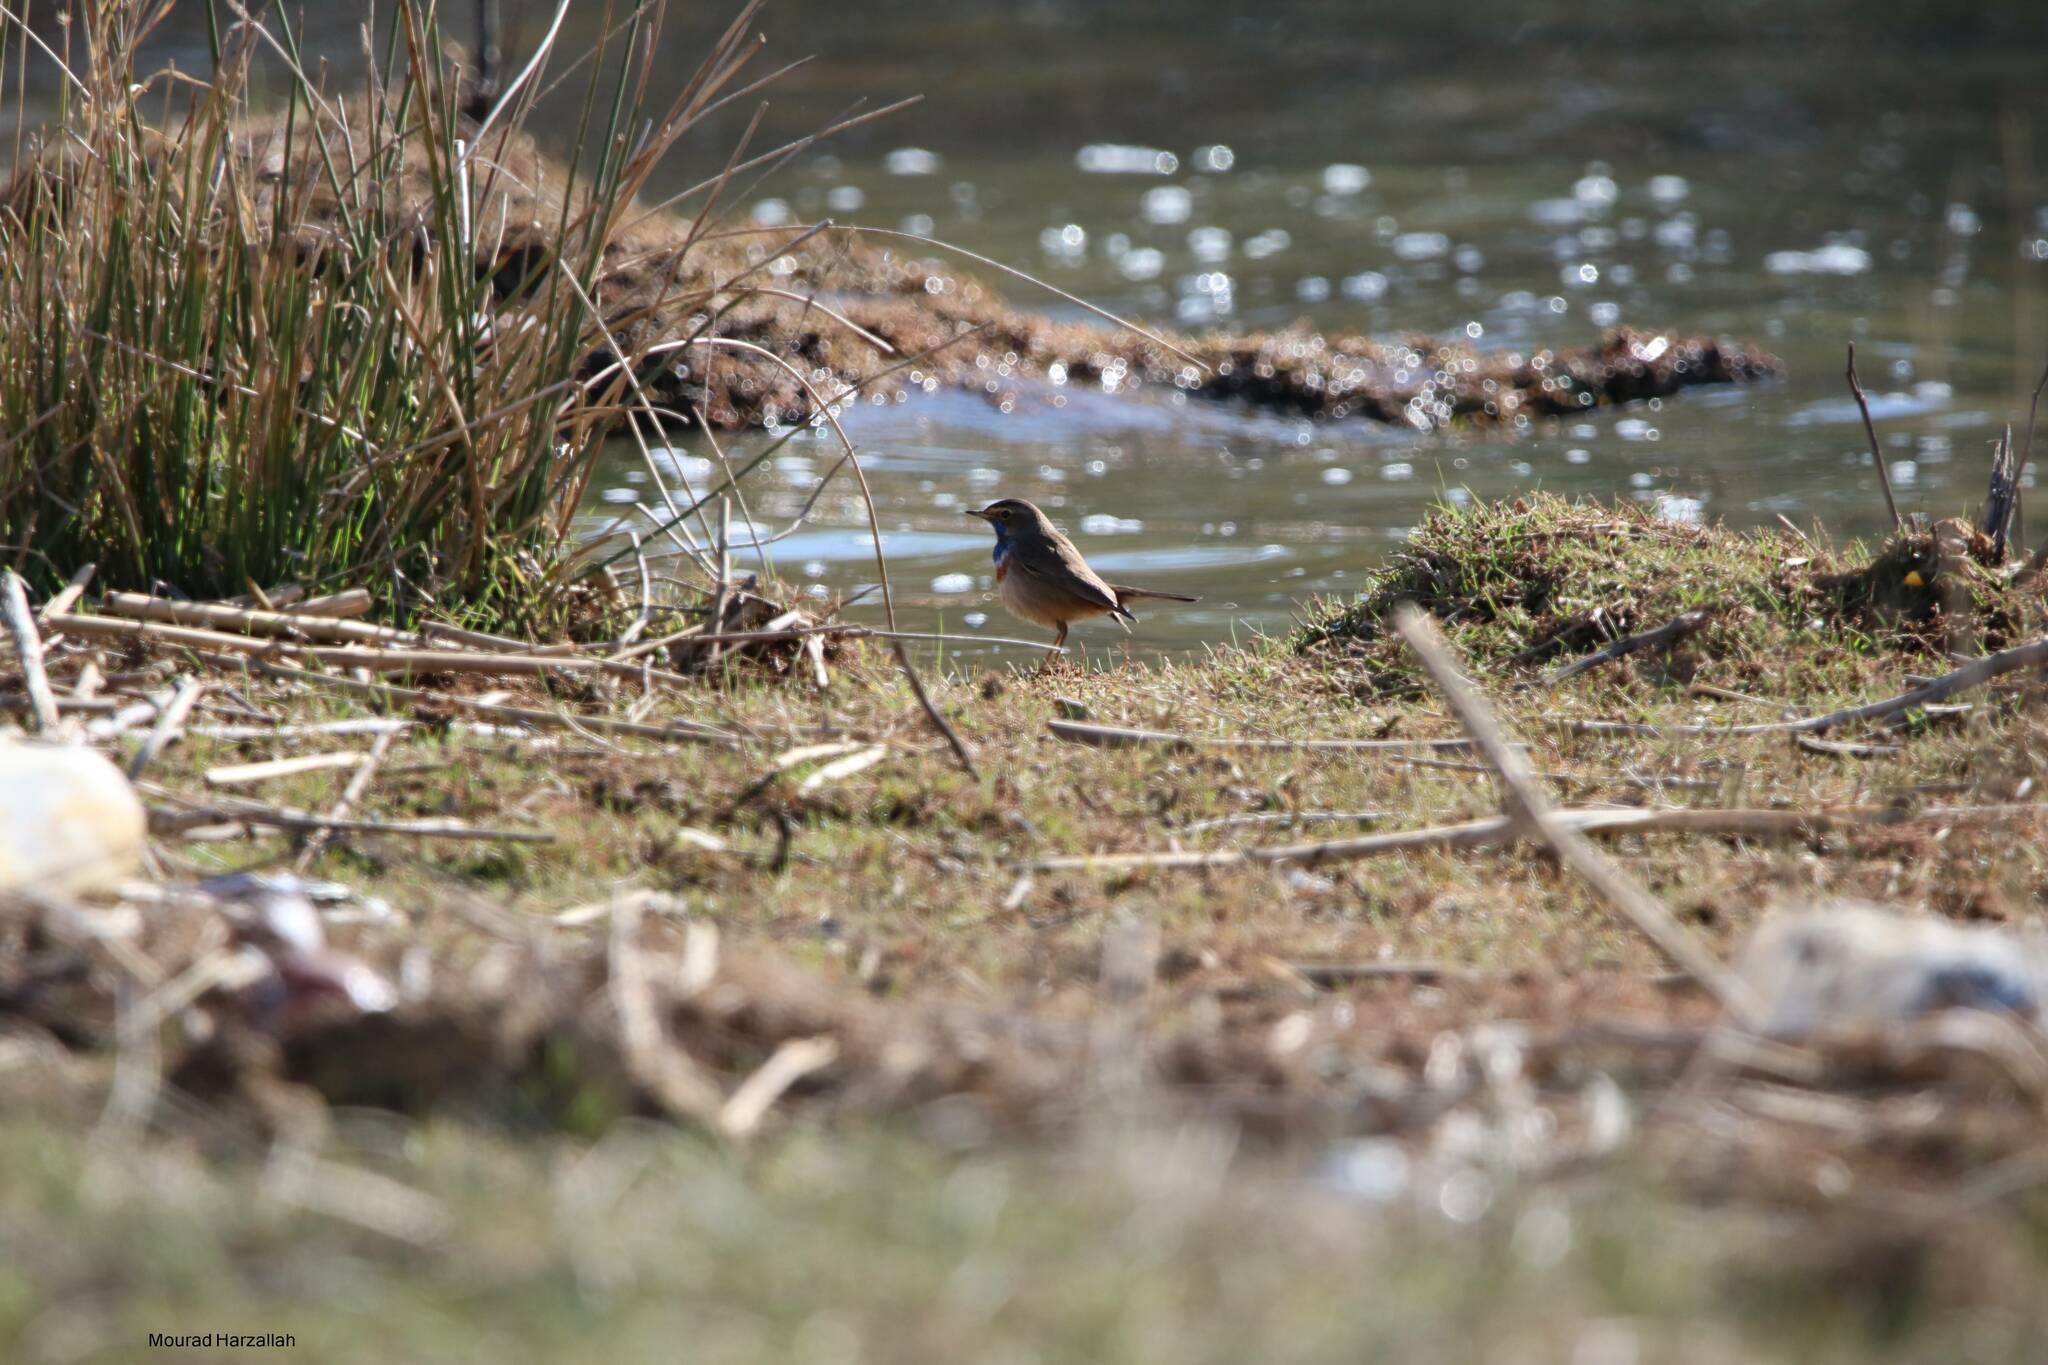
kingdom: Animalia
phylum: Chordata
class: Aves
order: Passeriformes
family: Muscicapidae
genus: Luscinia
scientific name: Luscinia svecica
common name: Bluethroat
